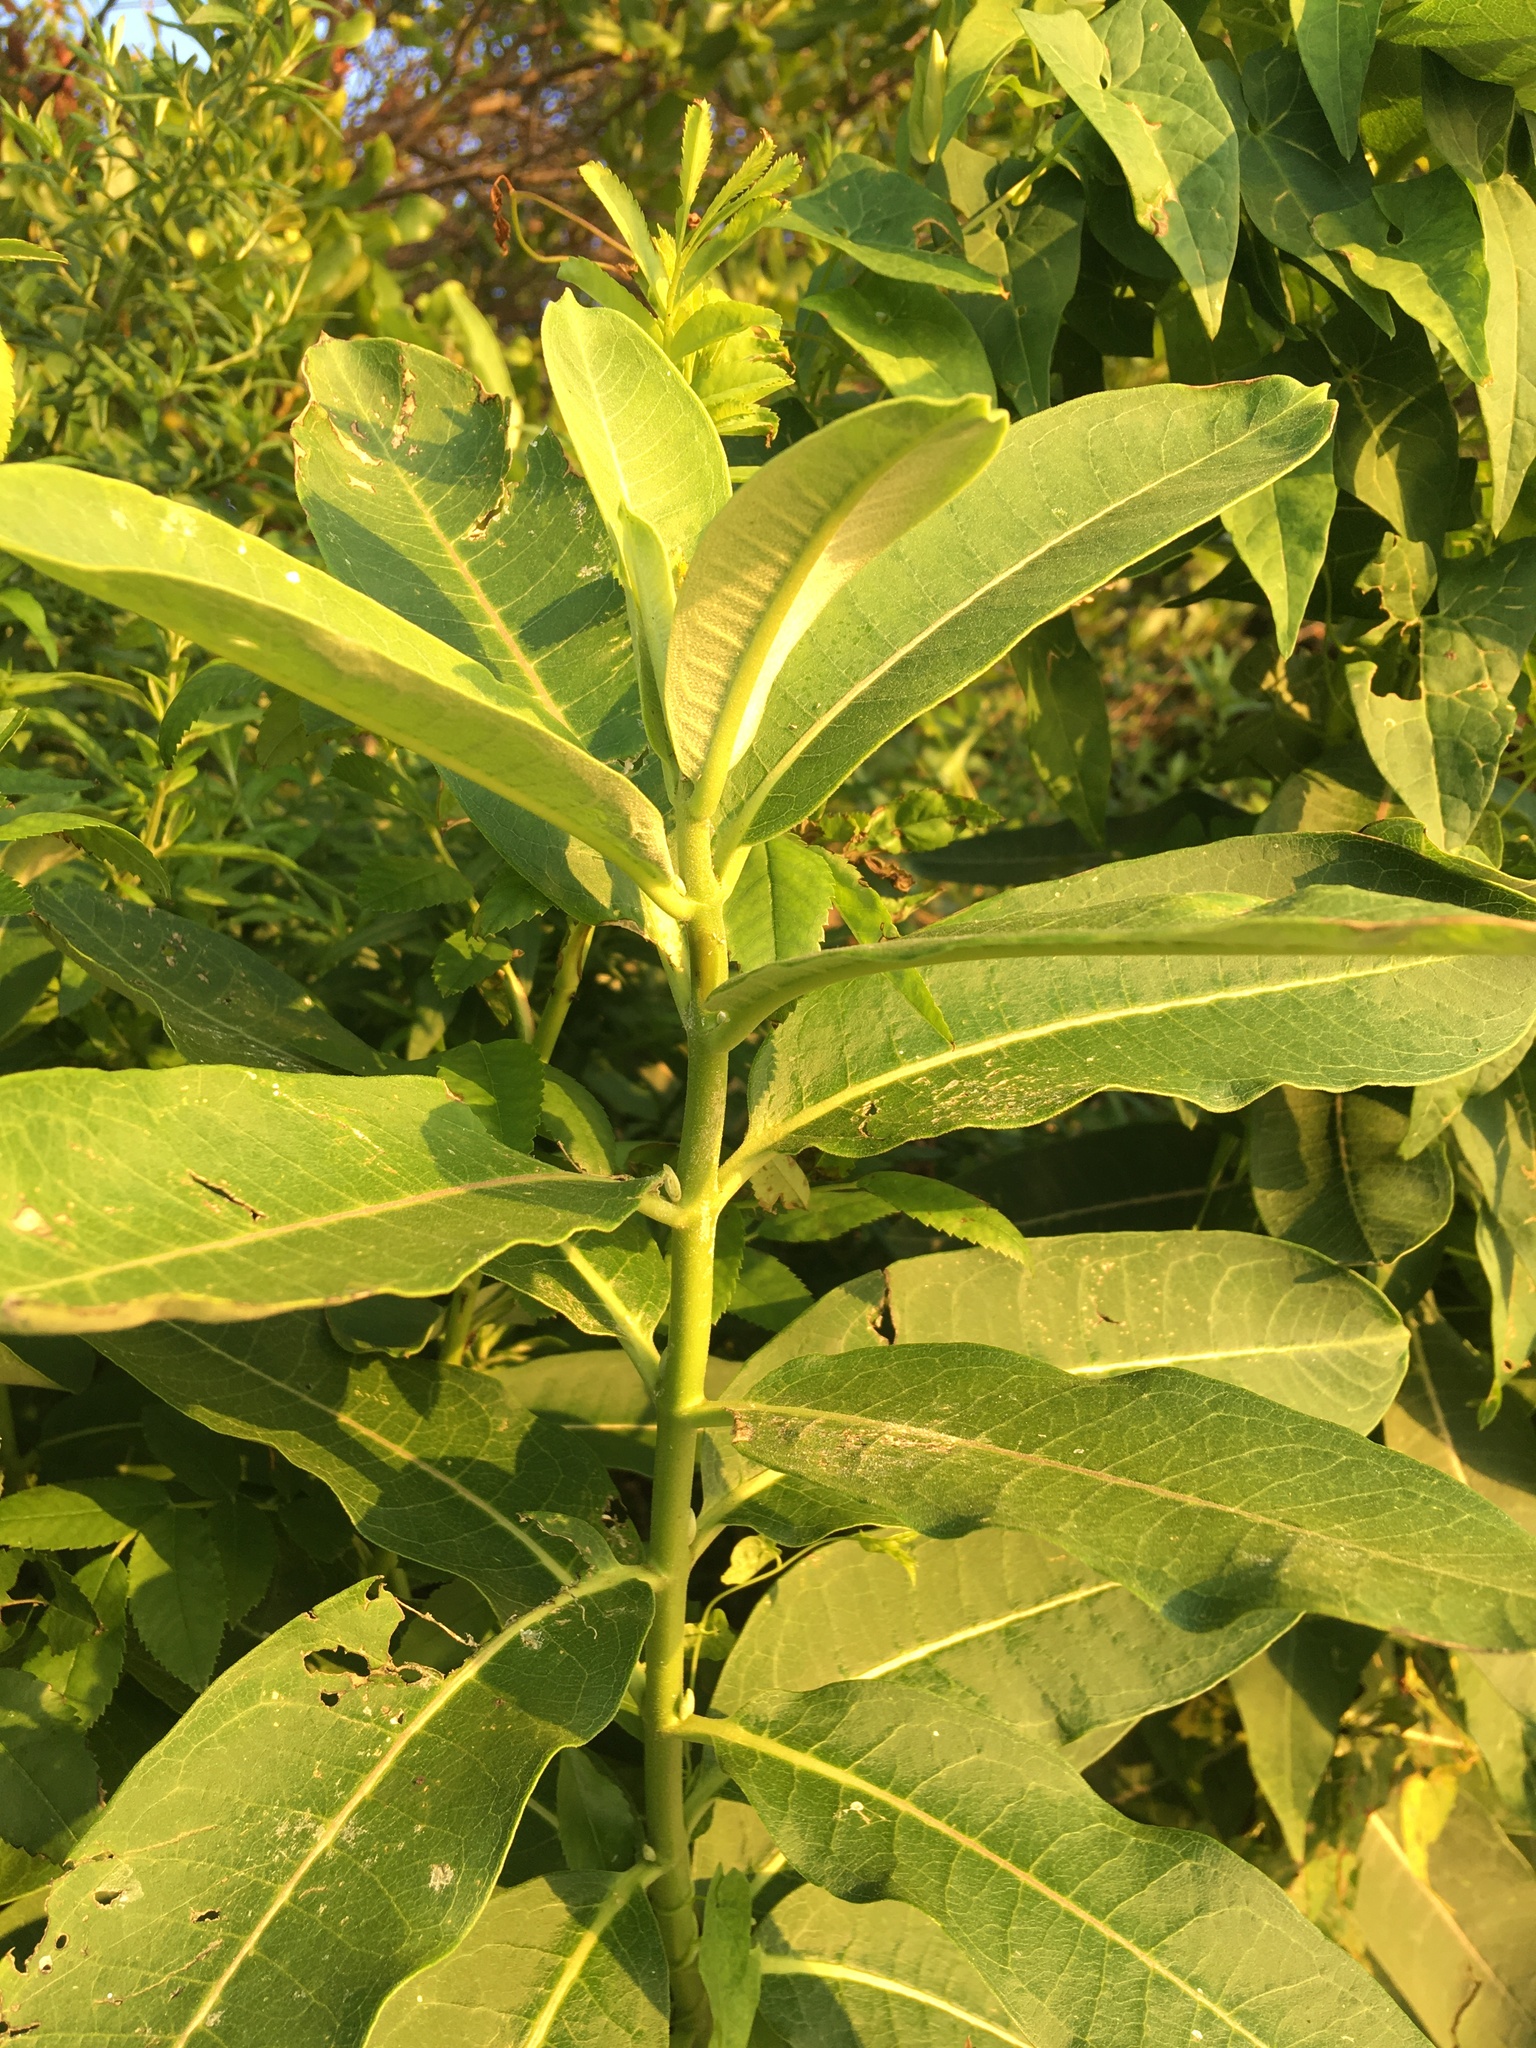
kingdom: Plantae
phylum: Tracheophyta
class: Magnoliopsida
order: Gentianales
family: Apocynaceae
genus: Asclepias
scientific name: Asclepias syriaca
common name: Common milkweed
